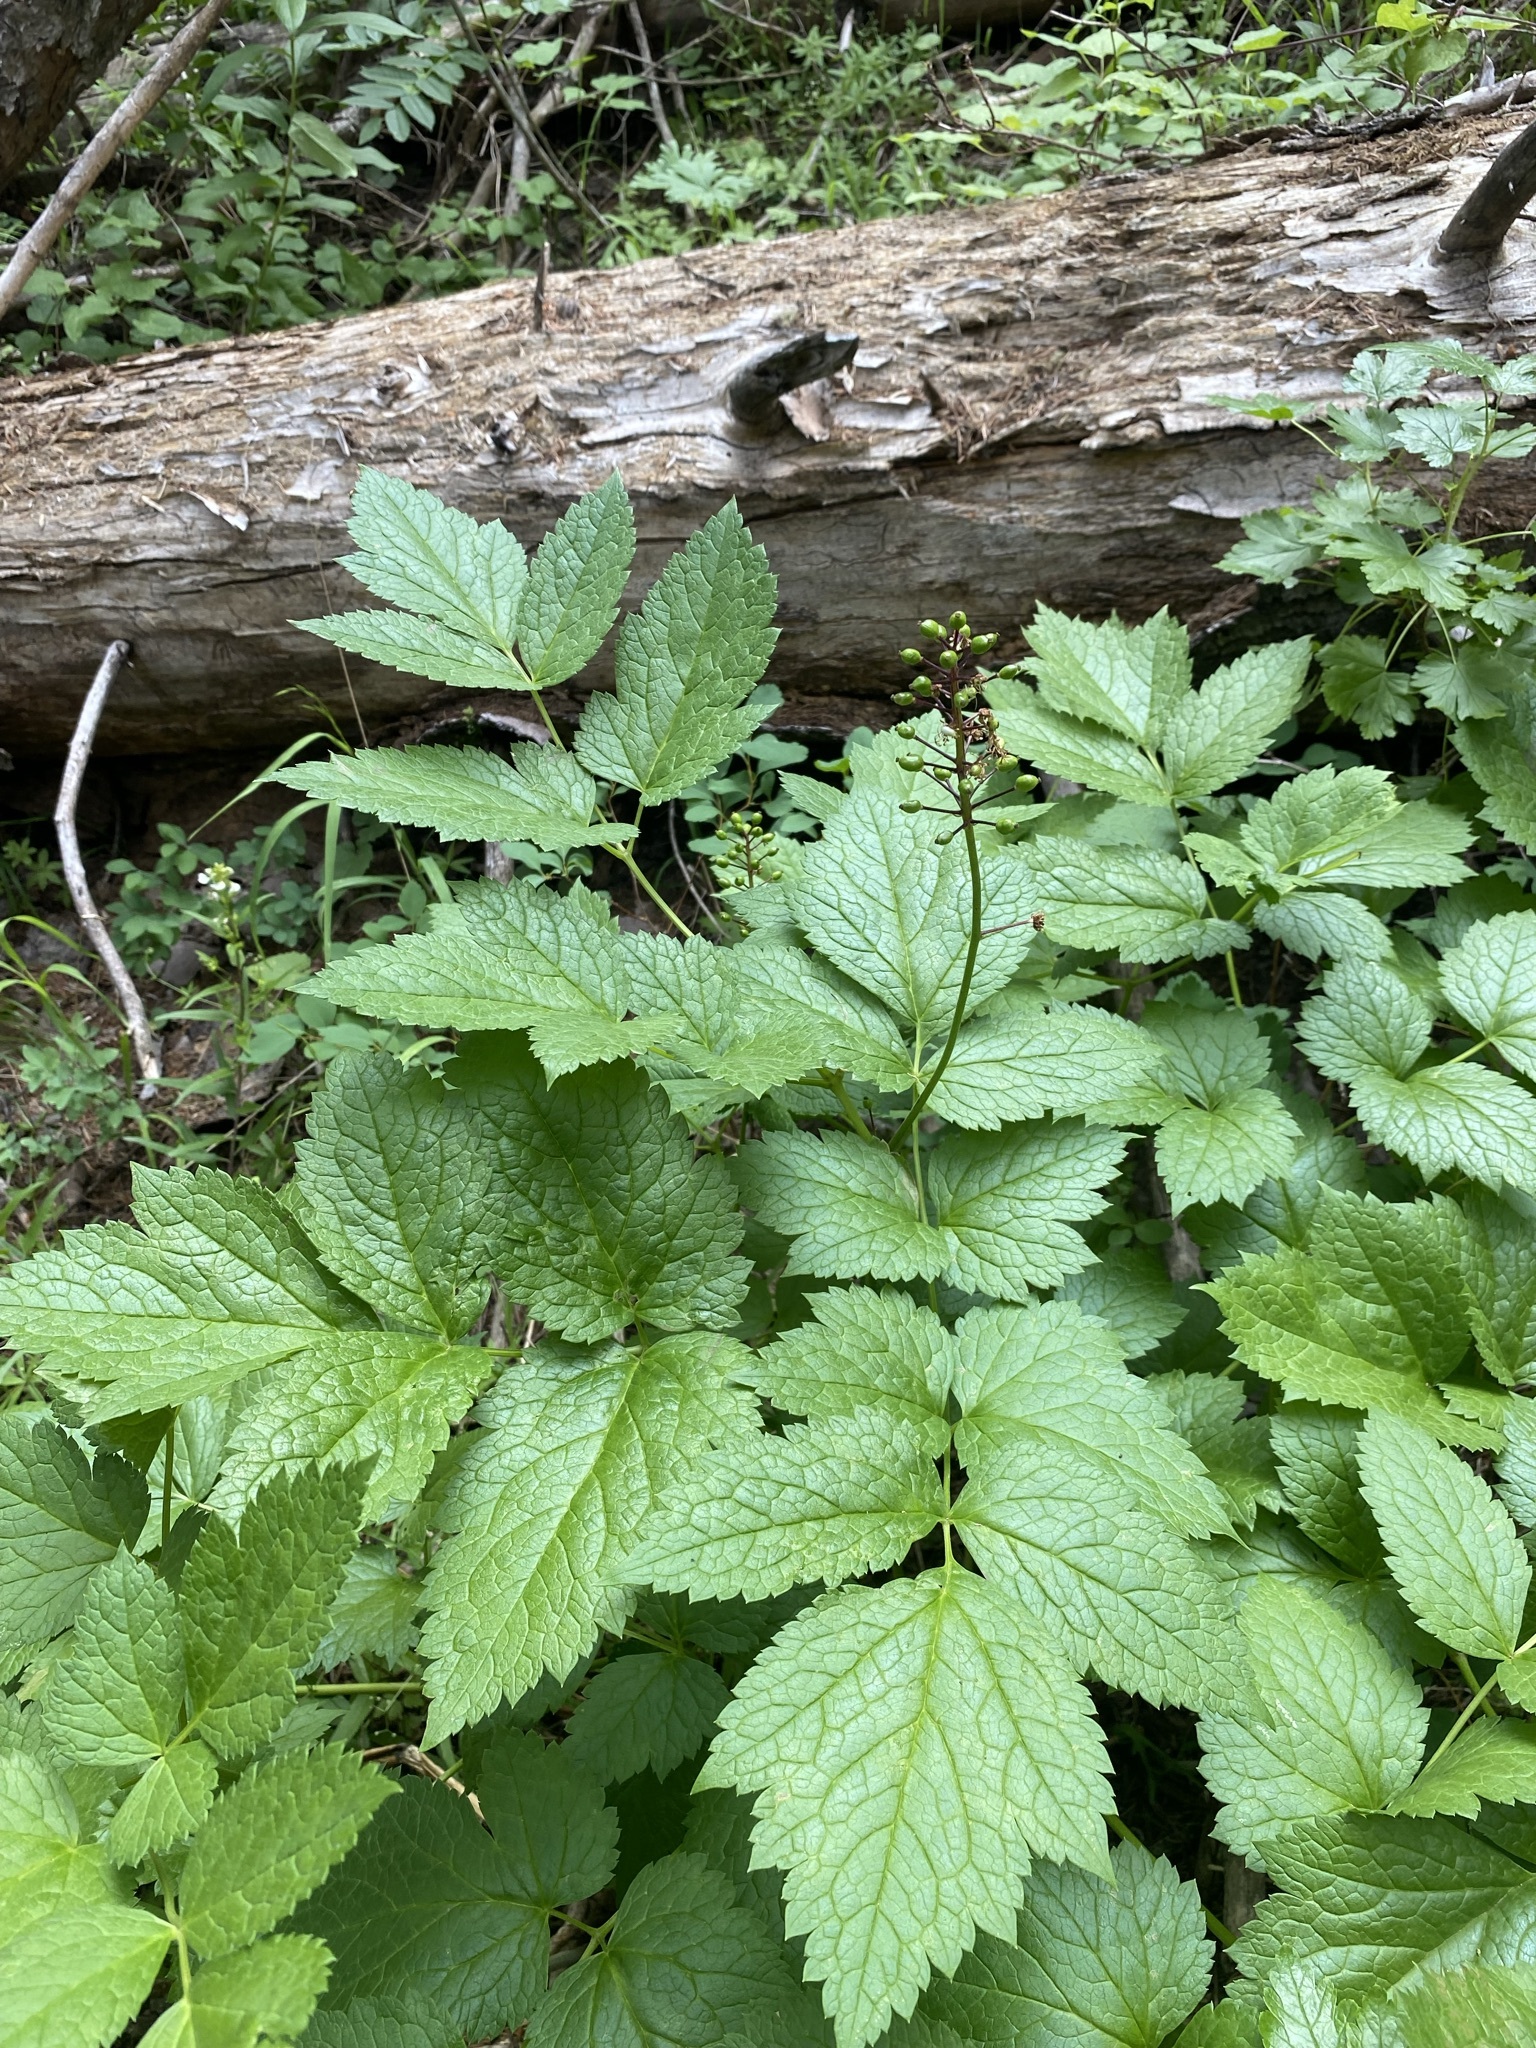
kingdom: Plantae
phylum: Tracheophyta
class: Magnoliopsida
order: Ranunculales
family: Ranunculaceae
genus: Actaea
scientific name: Actaea rubra
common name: Red baneberry
